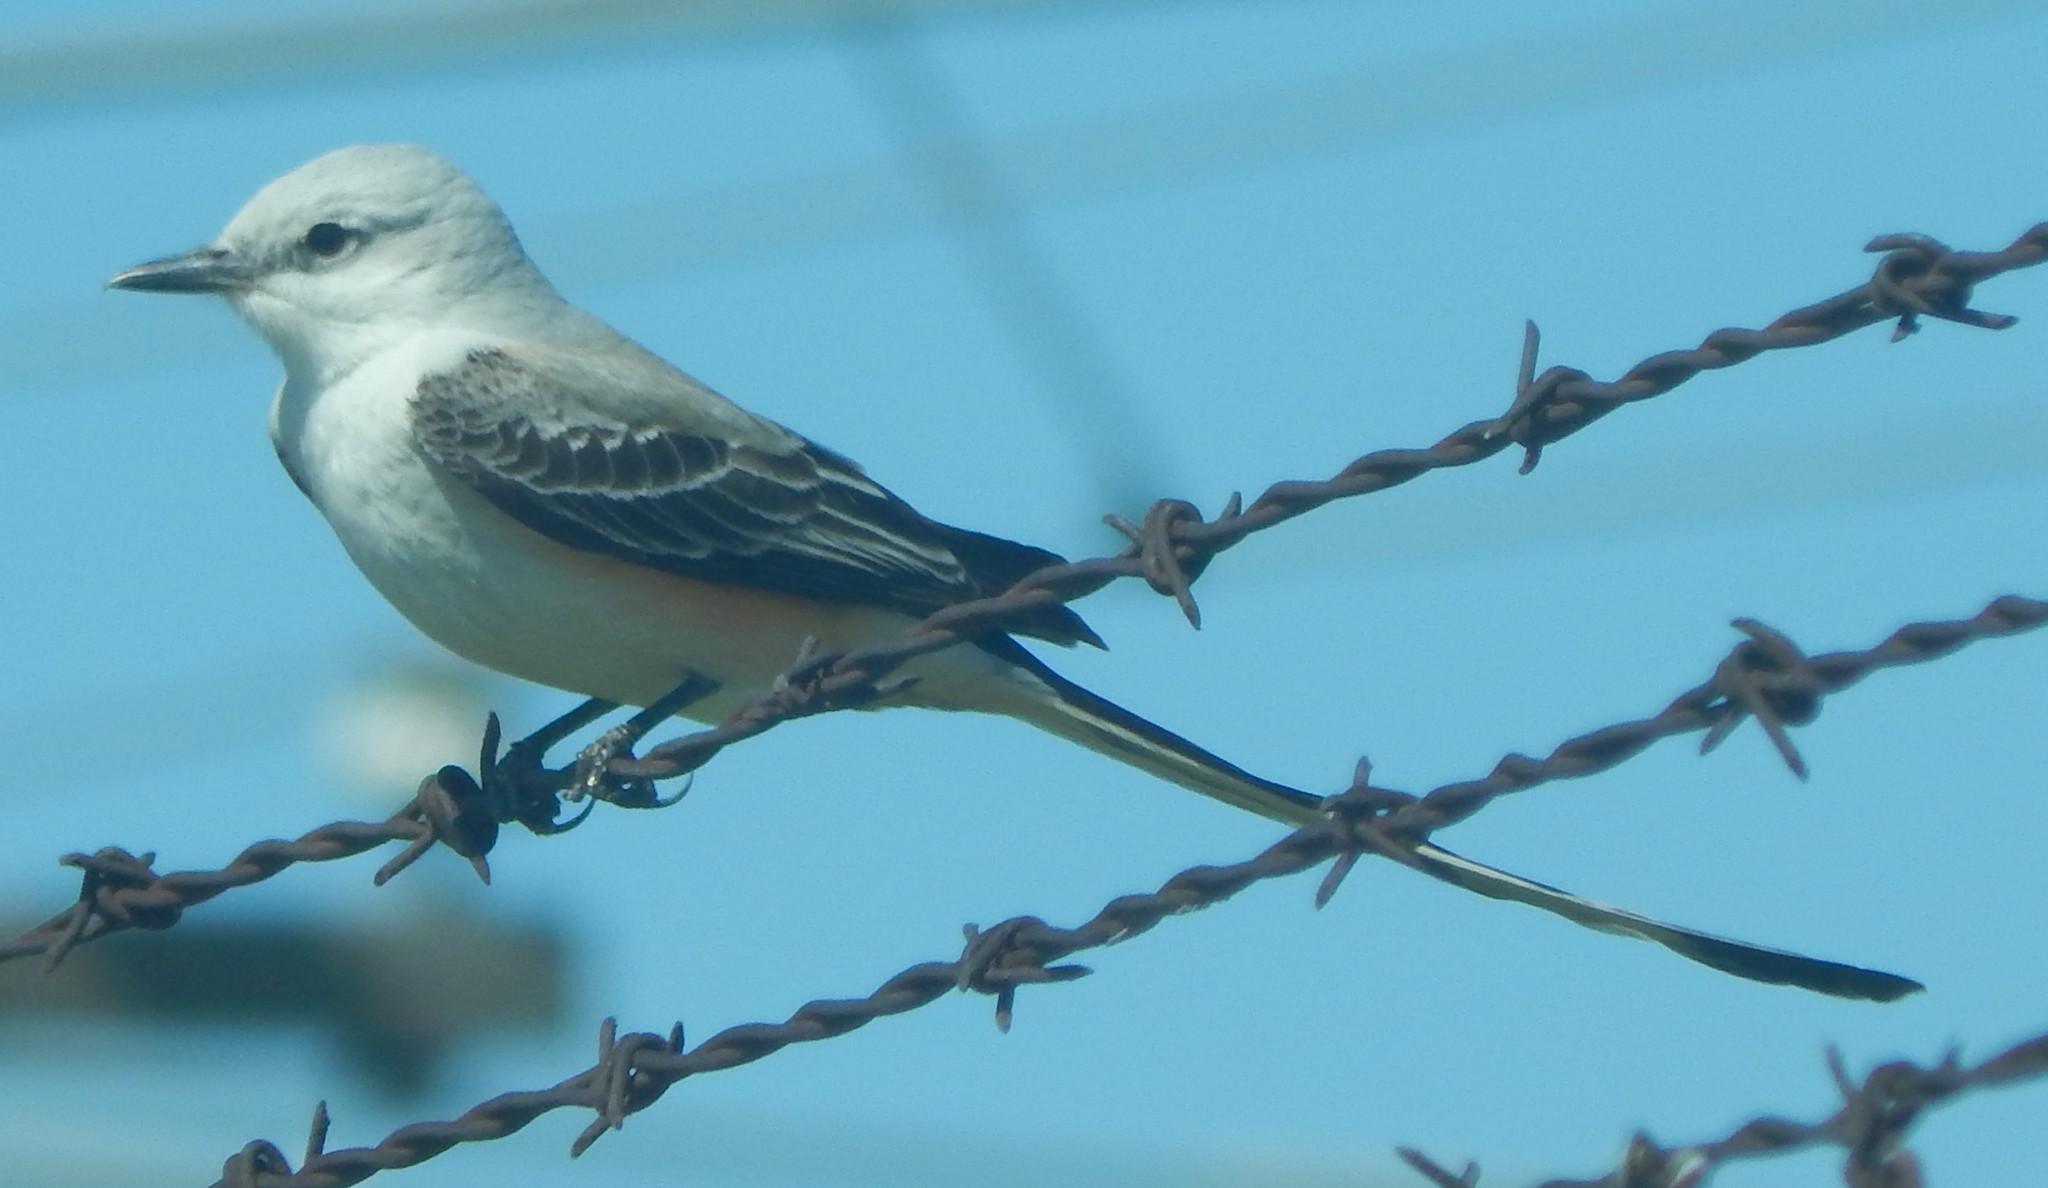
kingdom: Animalia
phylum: Chordata
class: Aves
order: Passeriformes
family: Tyrannidae
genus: Tyrannus
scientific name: Tyrannus forficatus
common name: Scissor-tailed flycatcher
